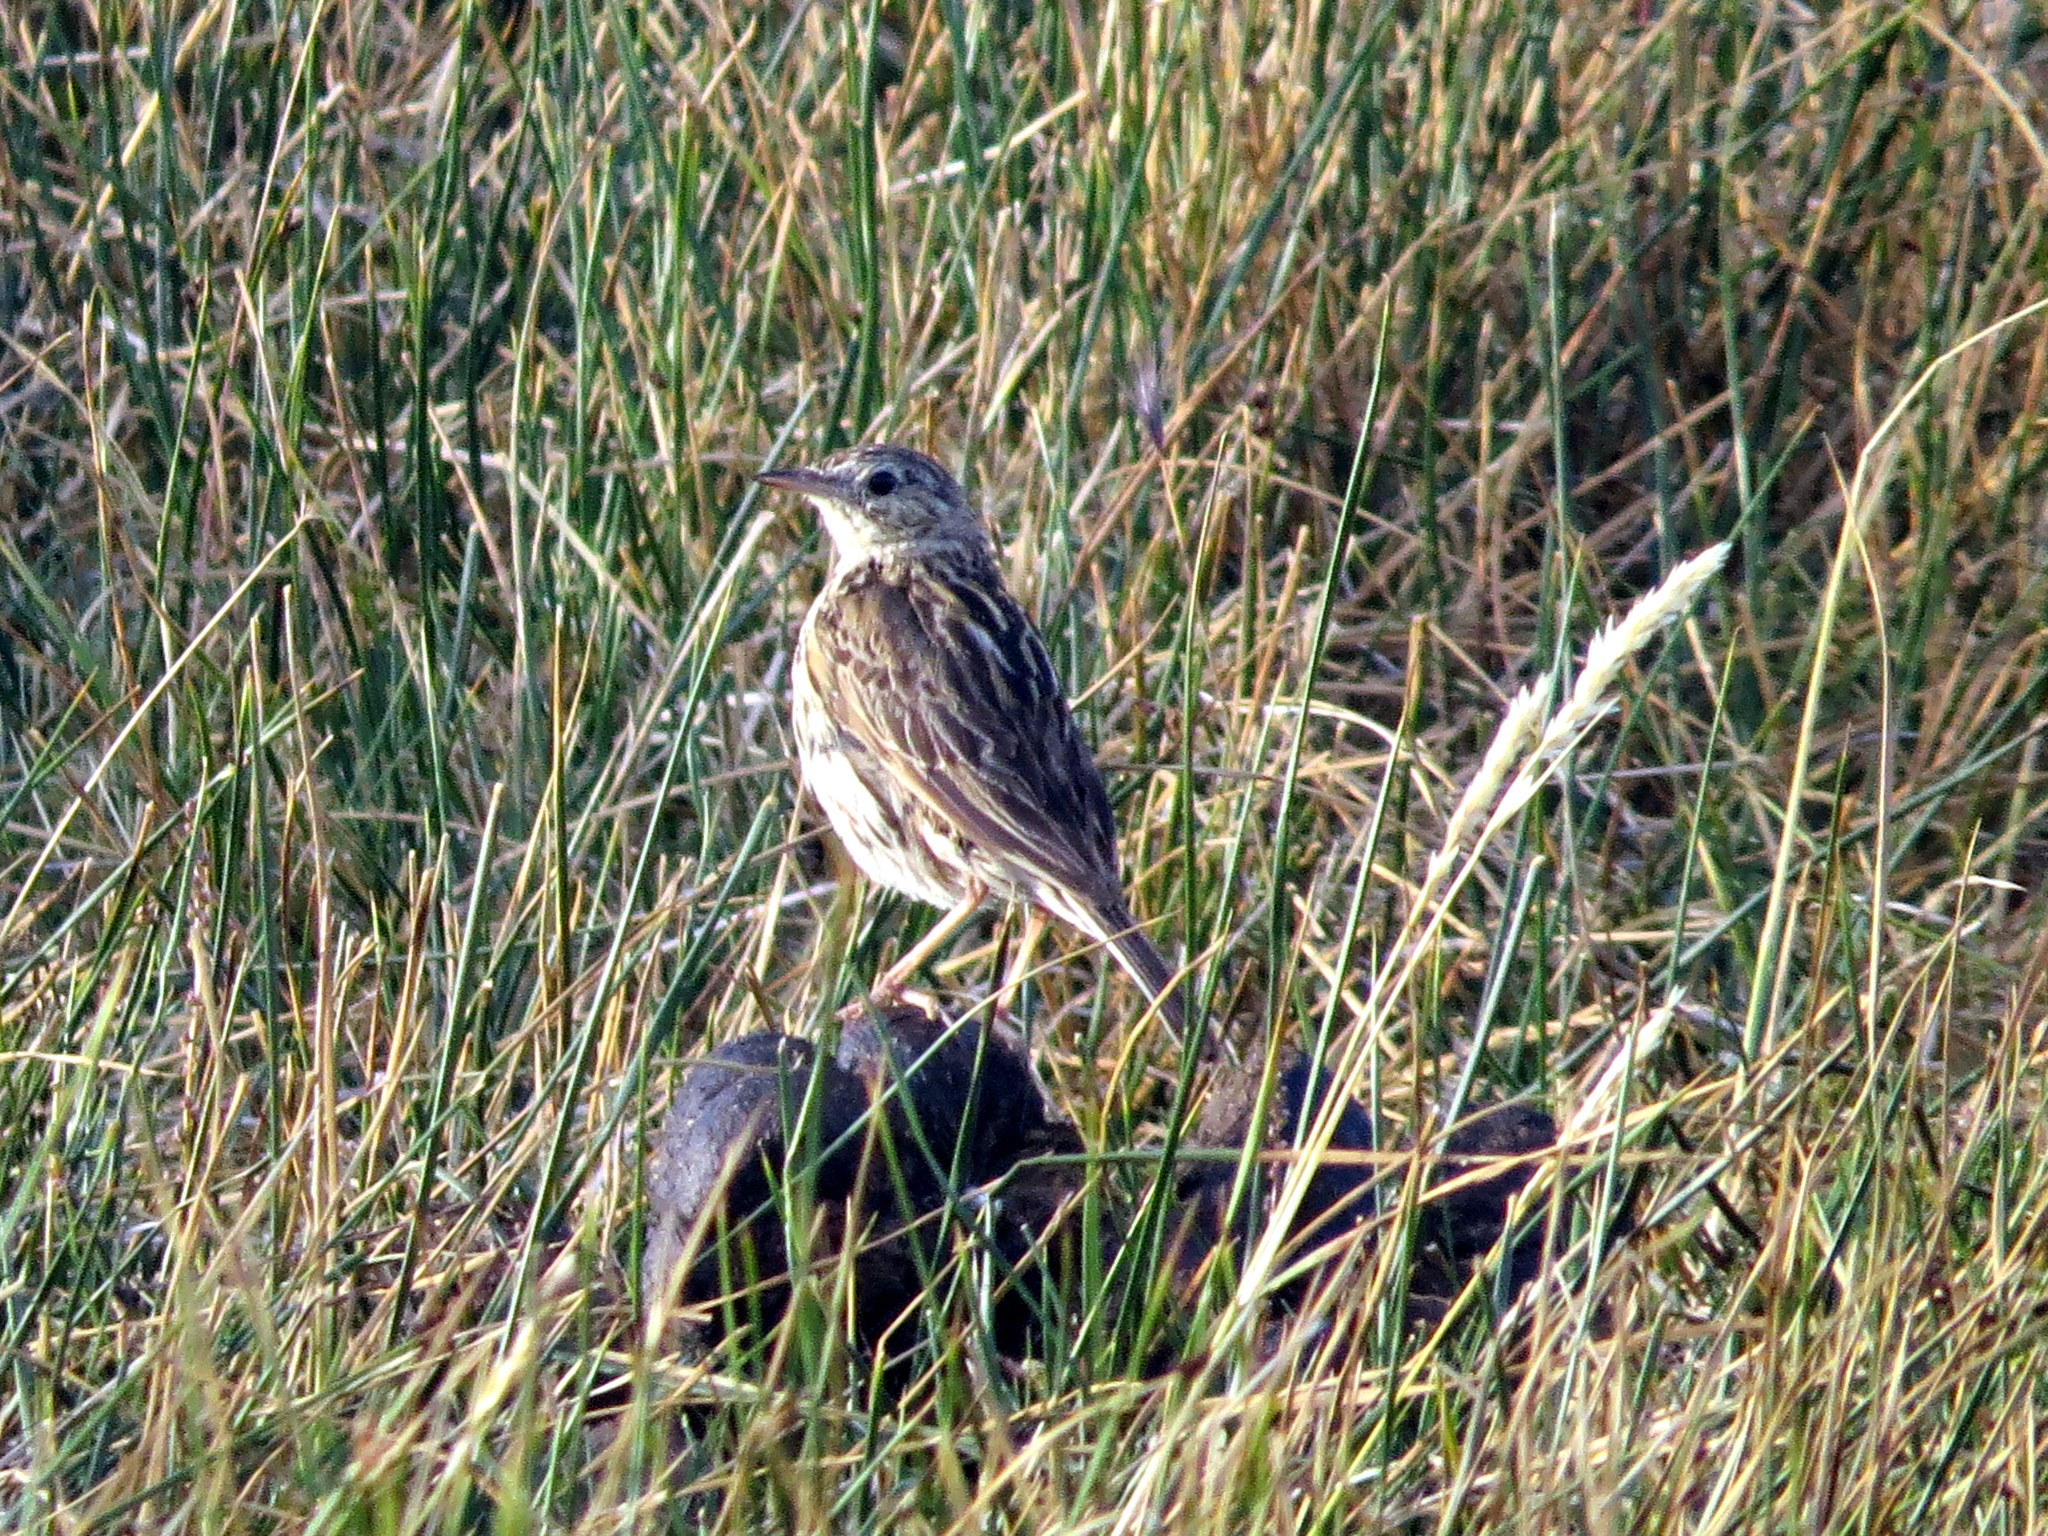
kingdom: Animalia
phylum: Chordata
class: Aves
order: Passeriformes
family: Motacillidae
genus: Anthus
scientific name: Anthus correndera
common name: Correndera pipit
